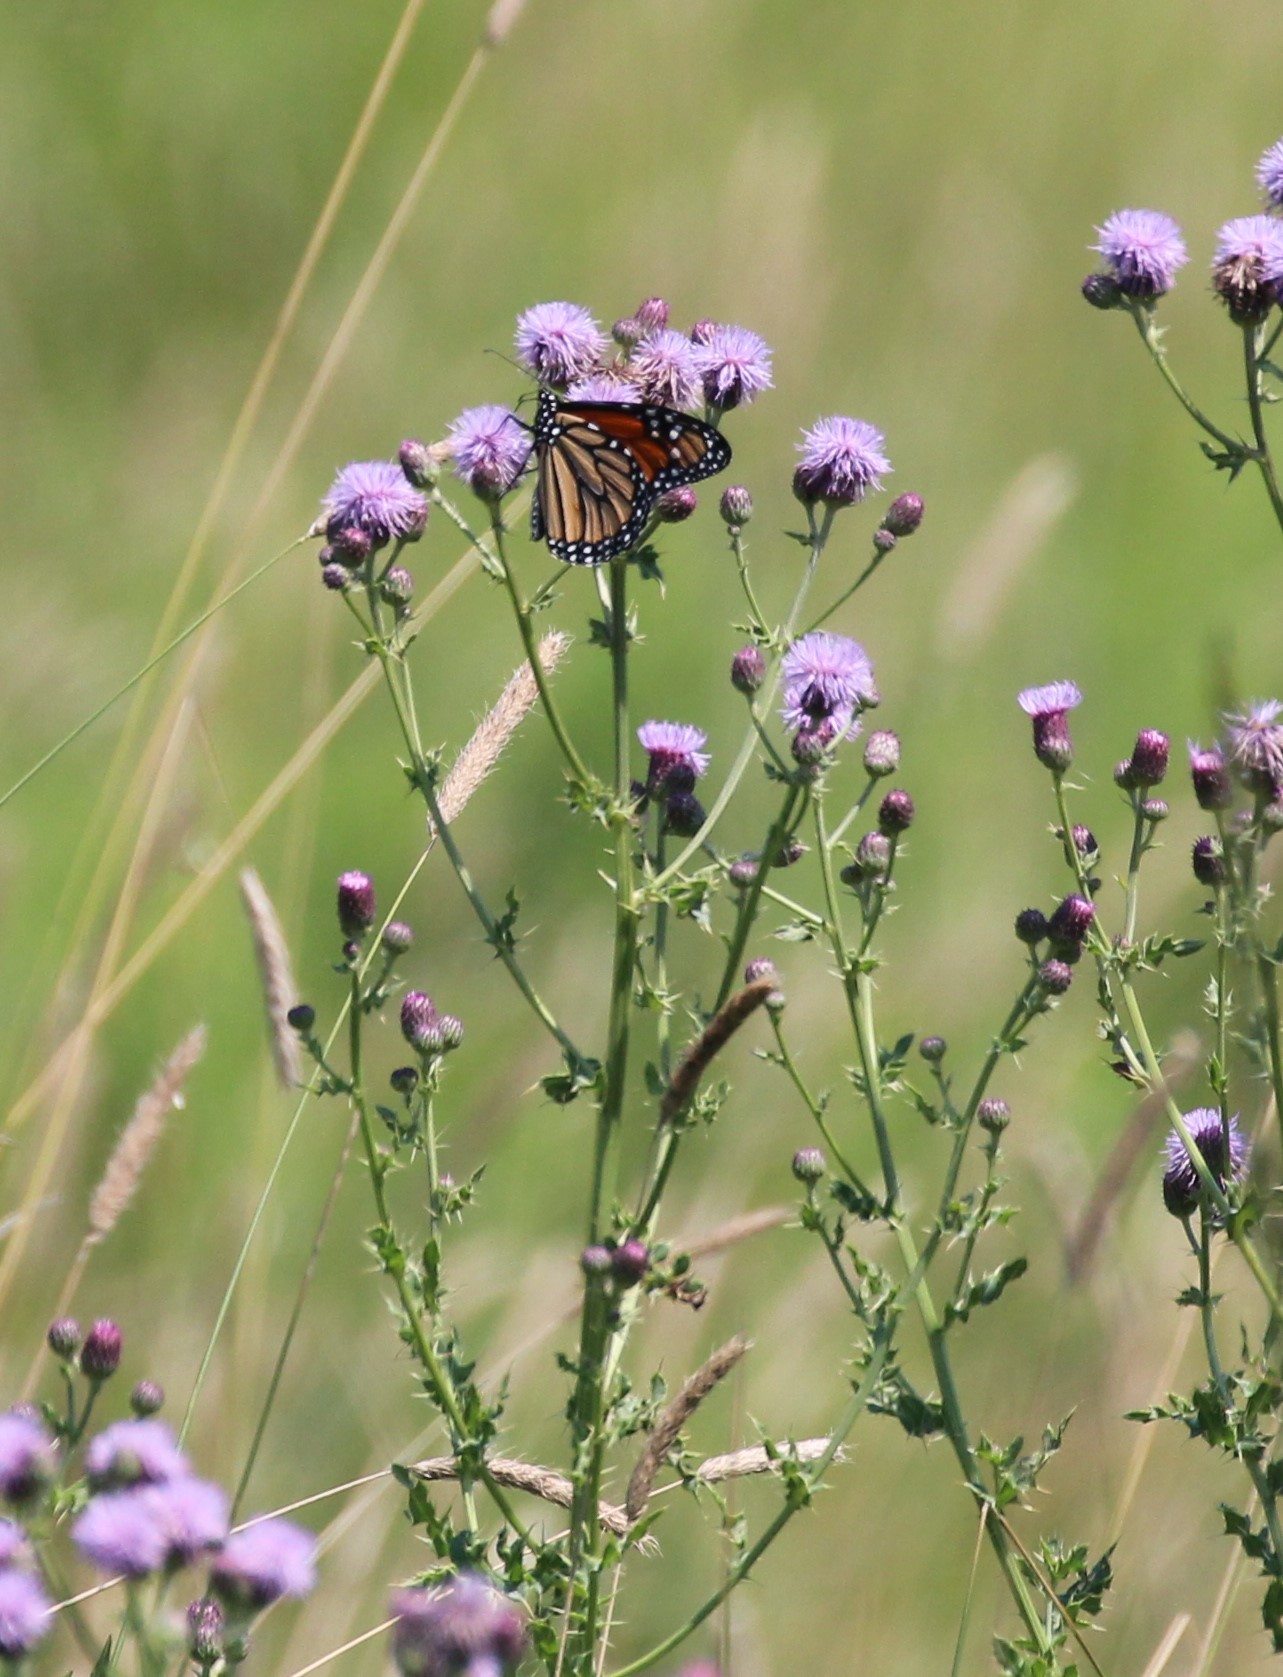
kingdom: Animalia
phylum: Arthropoda
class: Insecta
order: Lepidoptera
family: Nymphalidae
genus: Danaus
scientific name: Danaus plexippus
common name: Monarch
